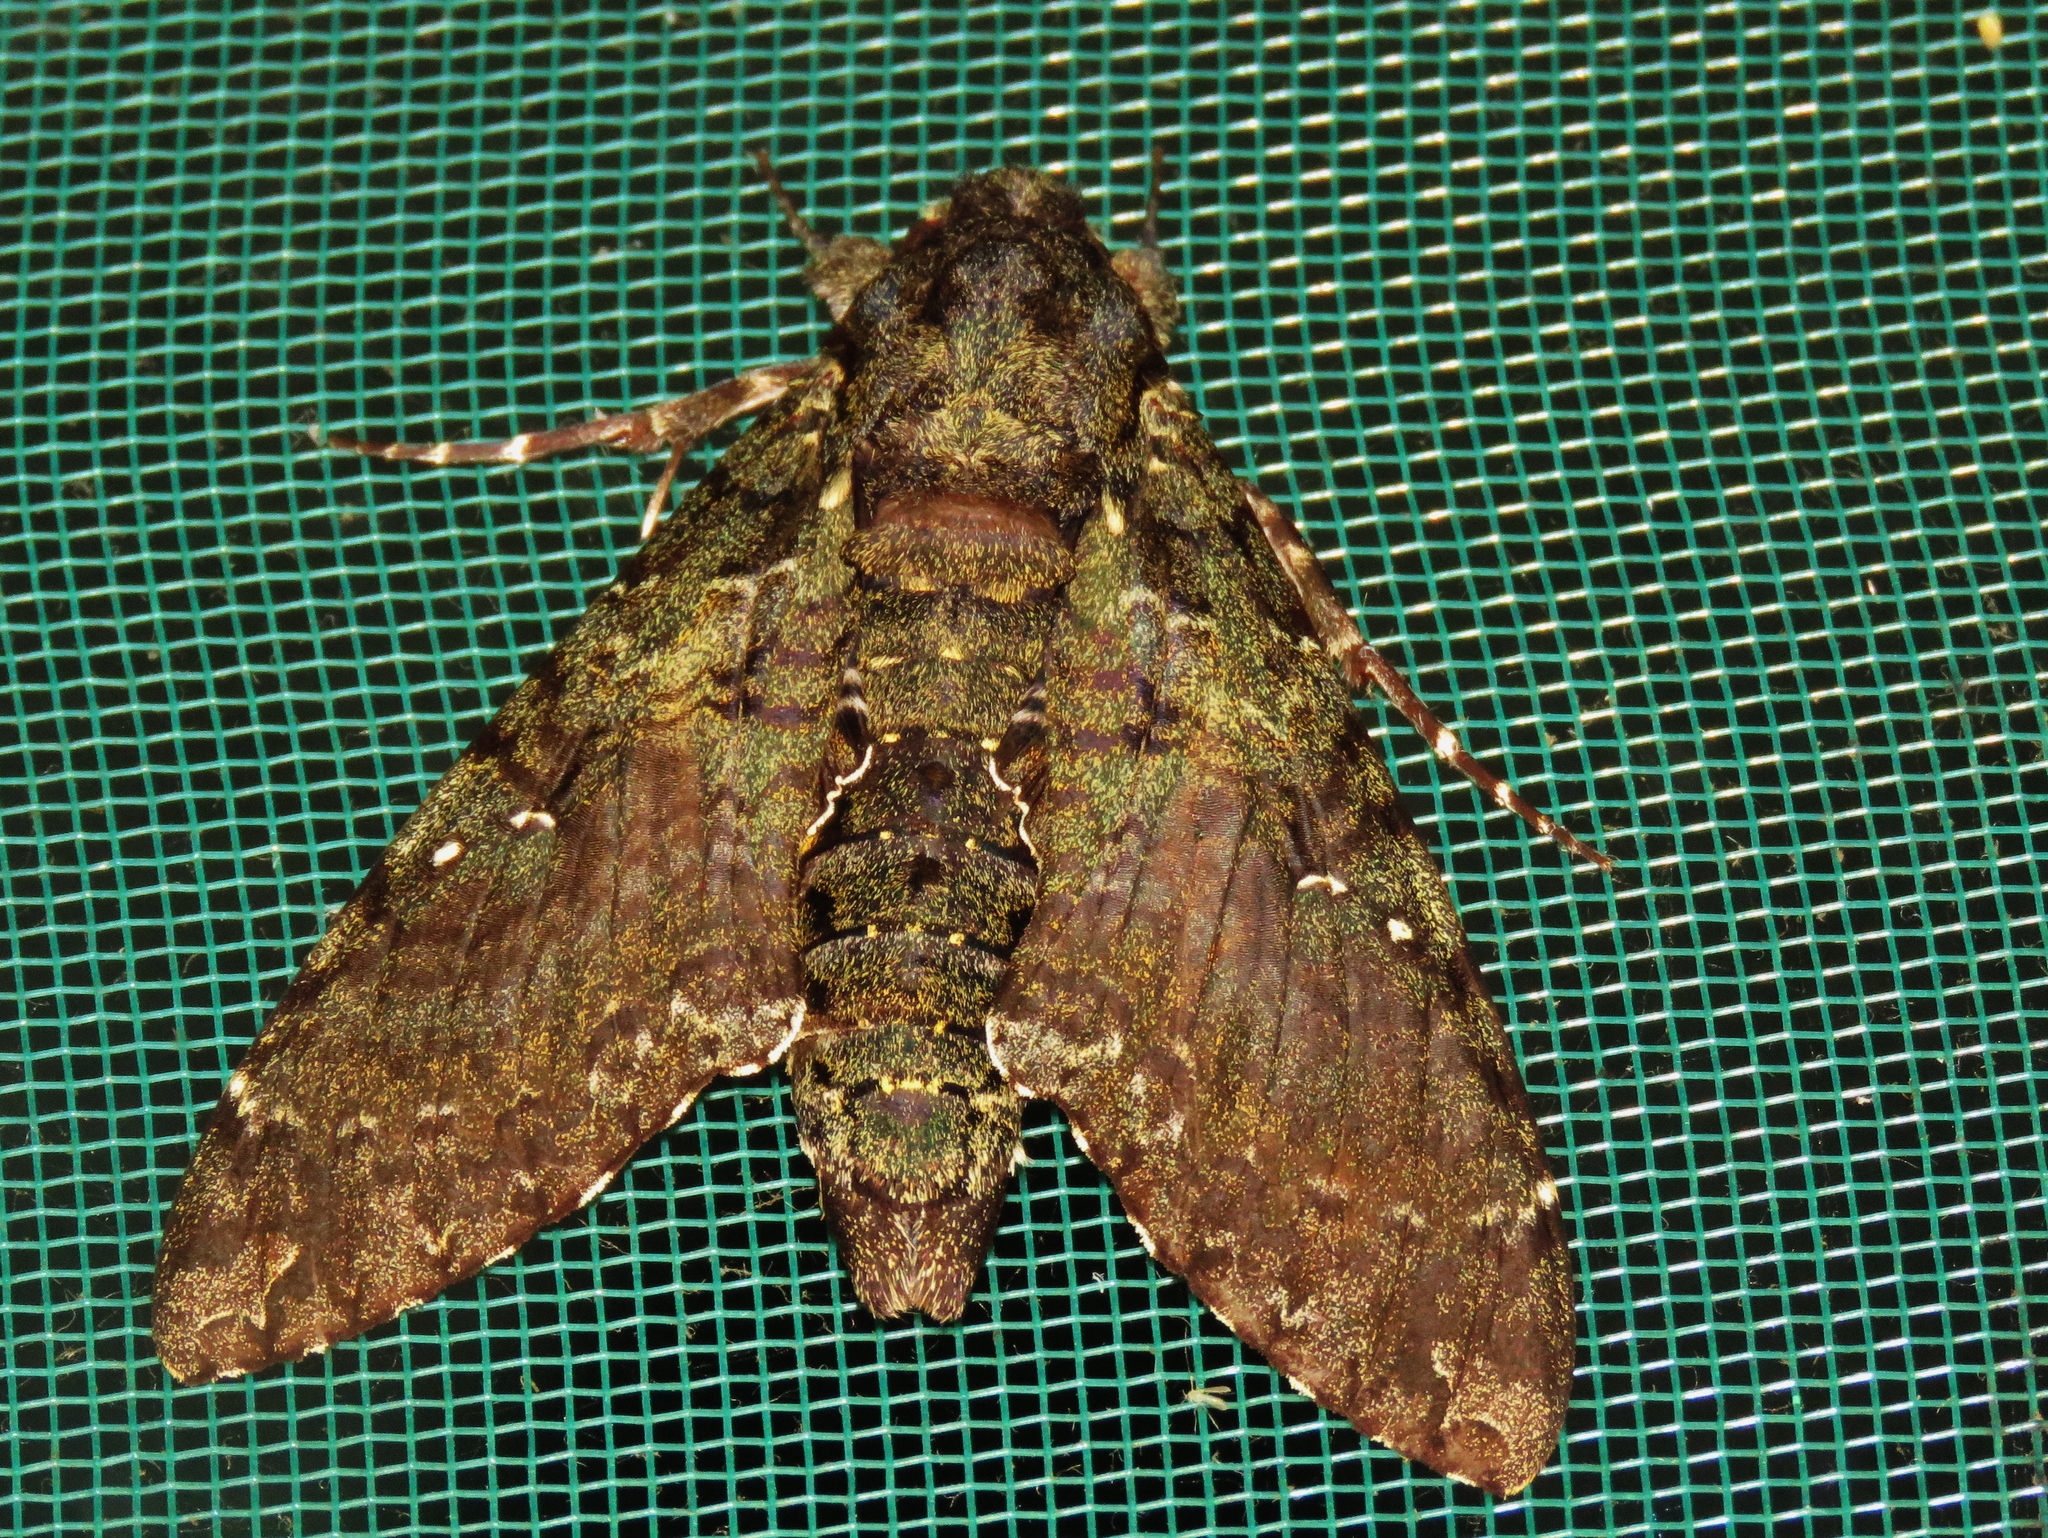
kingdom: Animalia
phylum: Arthropoda
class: Insecta
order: Lepidoptera
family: Sphingidae
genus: Cocytius
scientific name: Cocytius duponchel
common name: Duponchel's sphinx
